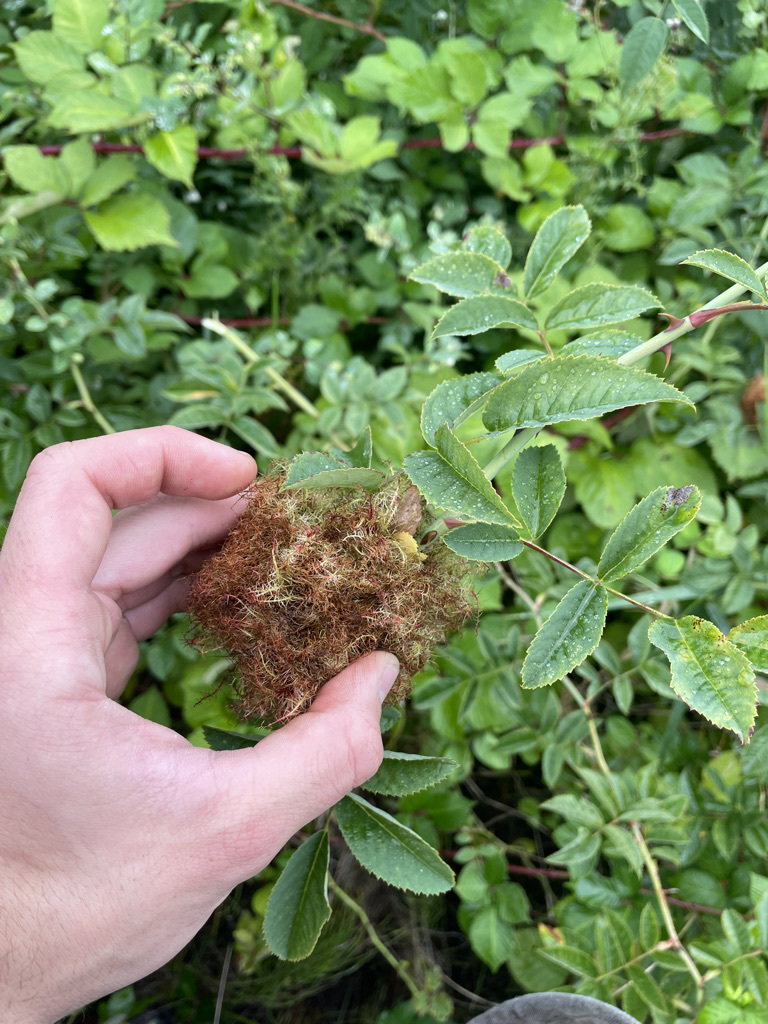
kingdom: Animalia
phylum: Arthropoda
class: Insecta
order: Hymenoptera
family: Cynipidae
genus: Diplolepis
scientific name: Diplolepis rosae
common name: Bedeguar gall
